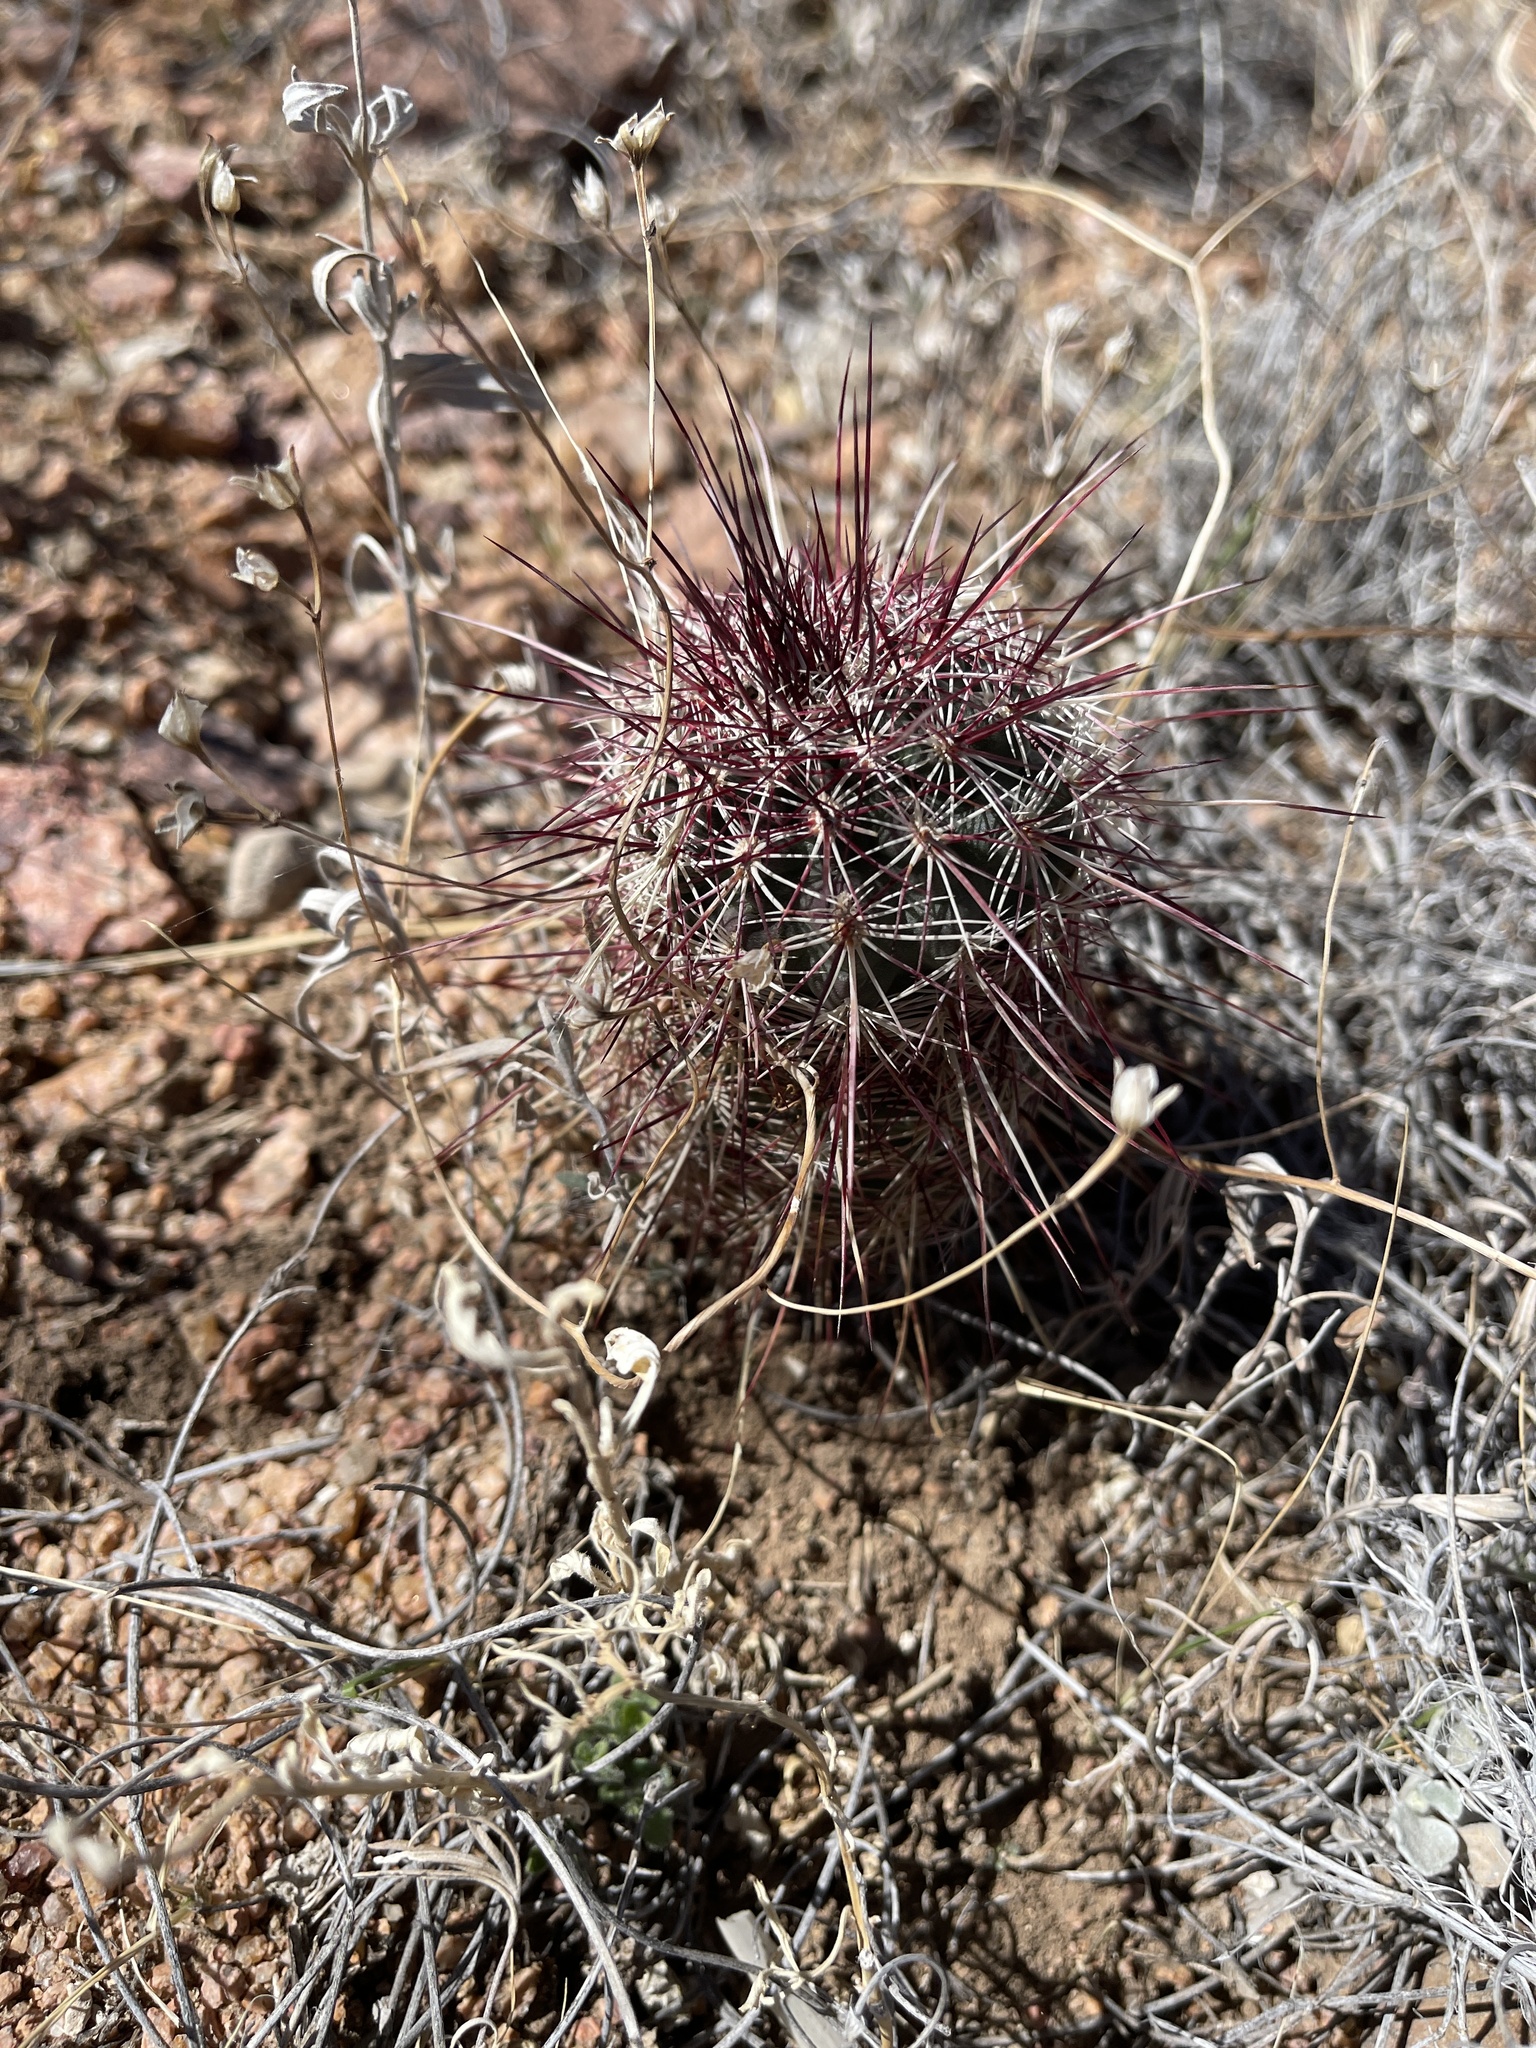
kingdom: Plantae
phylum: Tracheophyta
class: Magnoliopsida
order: Caryophyllales
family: Cactaceae
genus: Echinocereus
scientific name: Echinocereus viridiflorus
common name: Nylon hedgehog cactus
